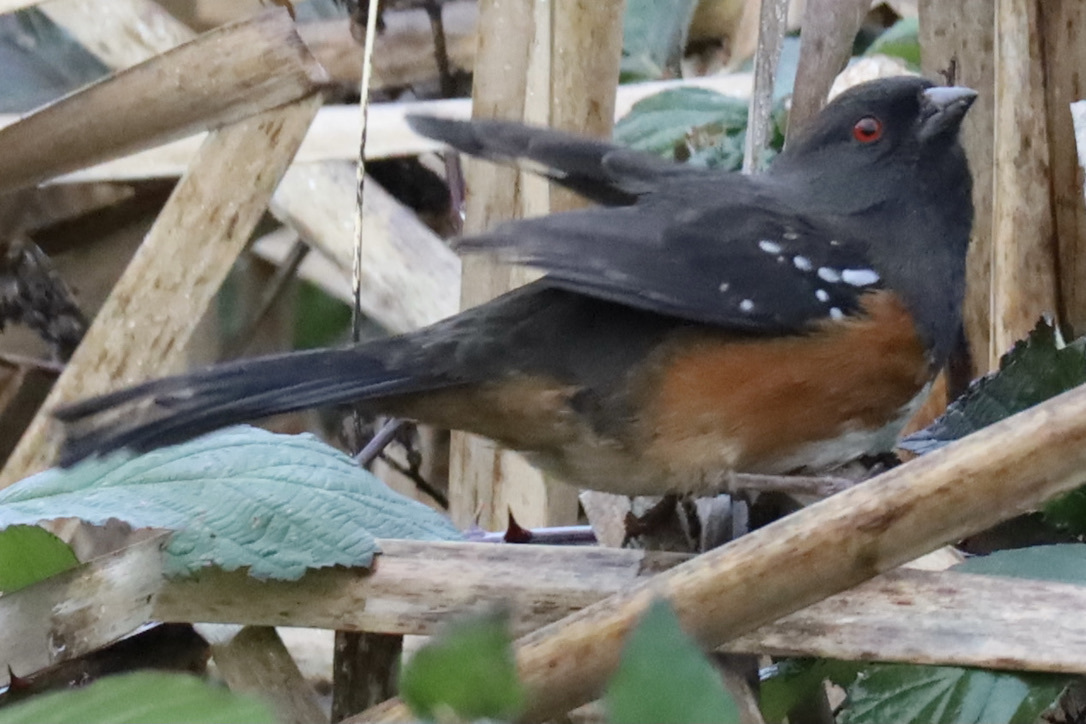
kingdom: Animalia
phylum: Chordata
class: Aves
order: Passeriformes
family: Passerellidae
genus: Pipilo
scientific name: Pipilo maculatus
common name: Spotted towhee
